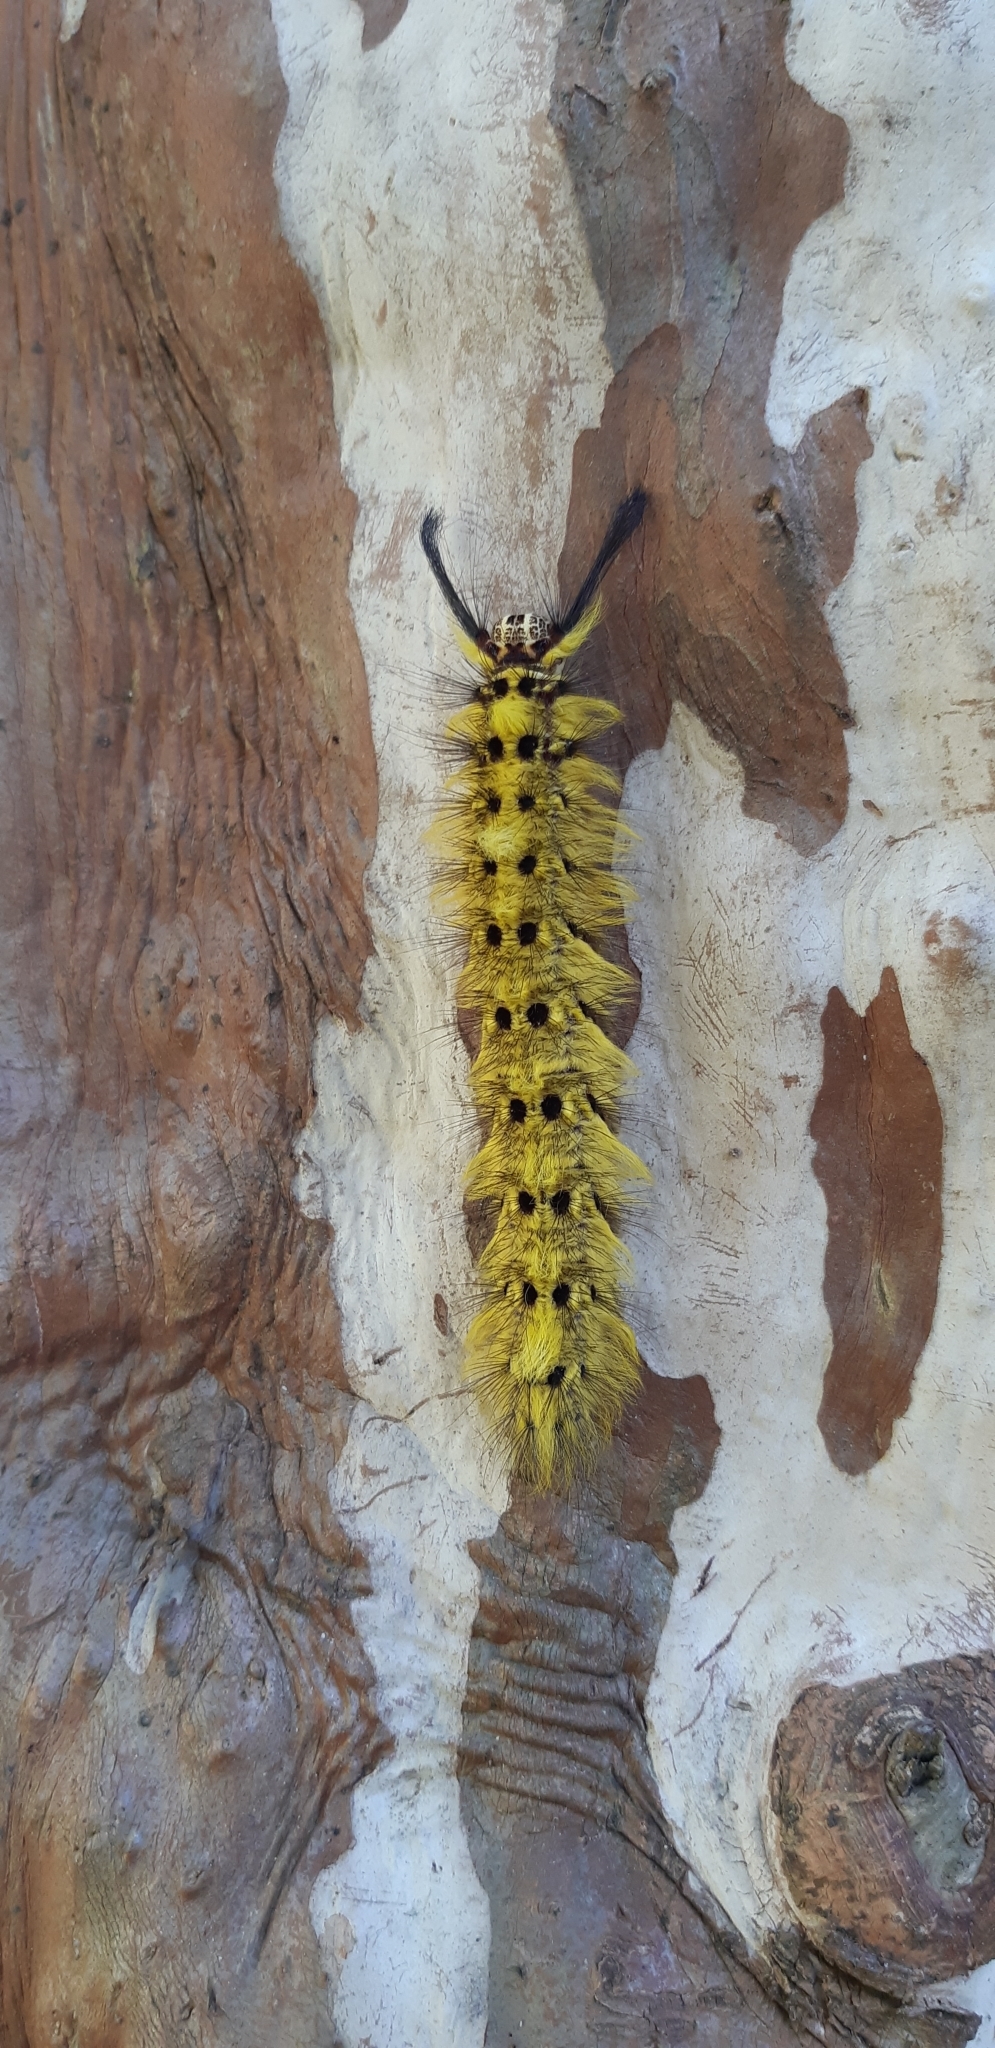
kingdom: Animalia
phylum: Arthropoda
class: Insecta
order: Lepidoptera
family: Lasiocampidae
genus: Trabala
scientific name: Trabala vishnou
